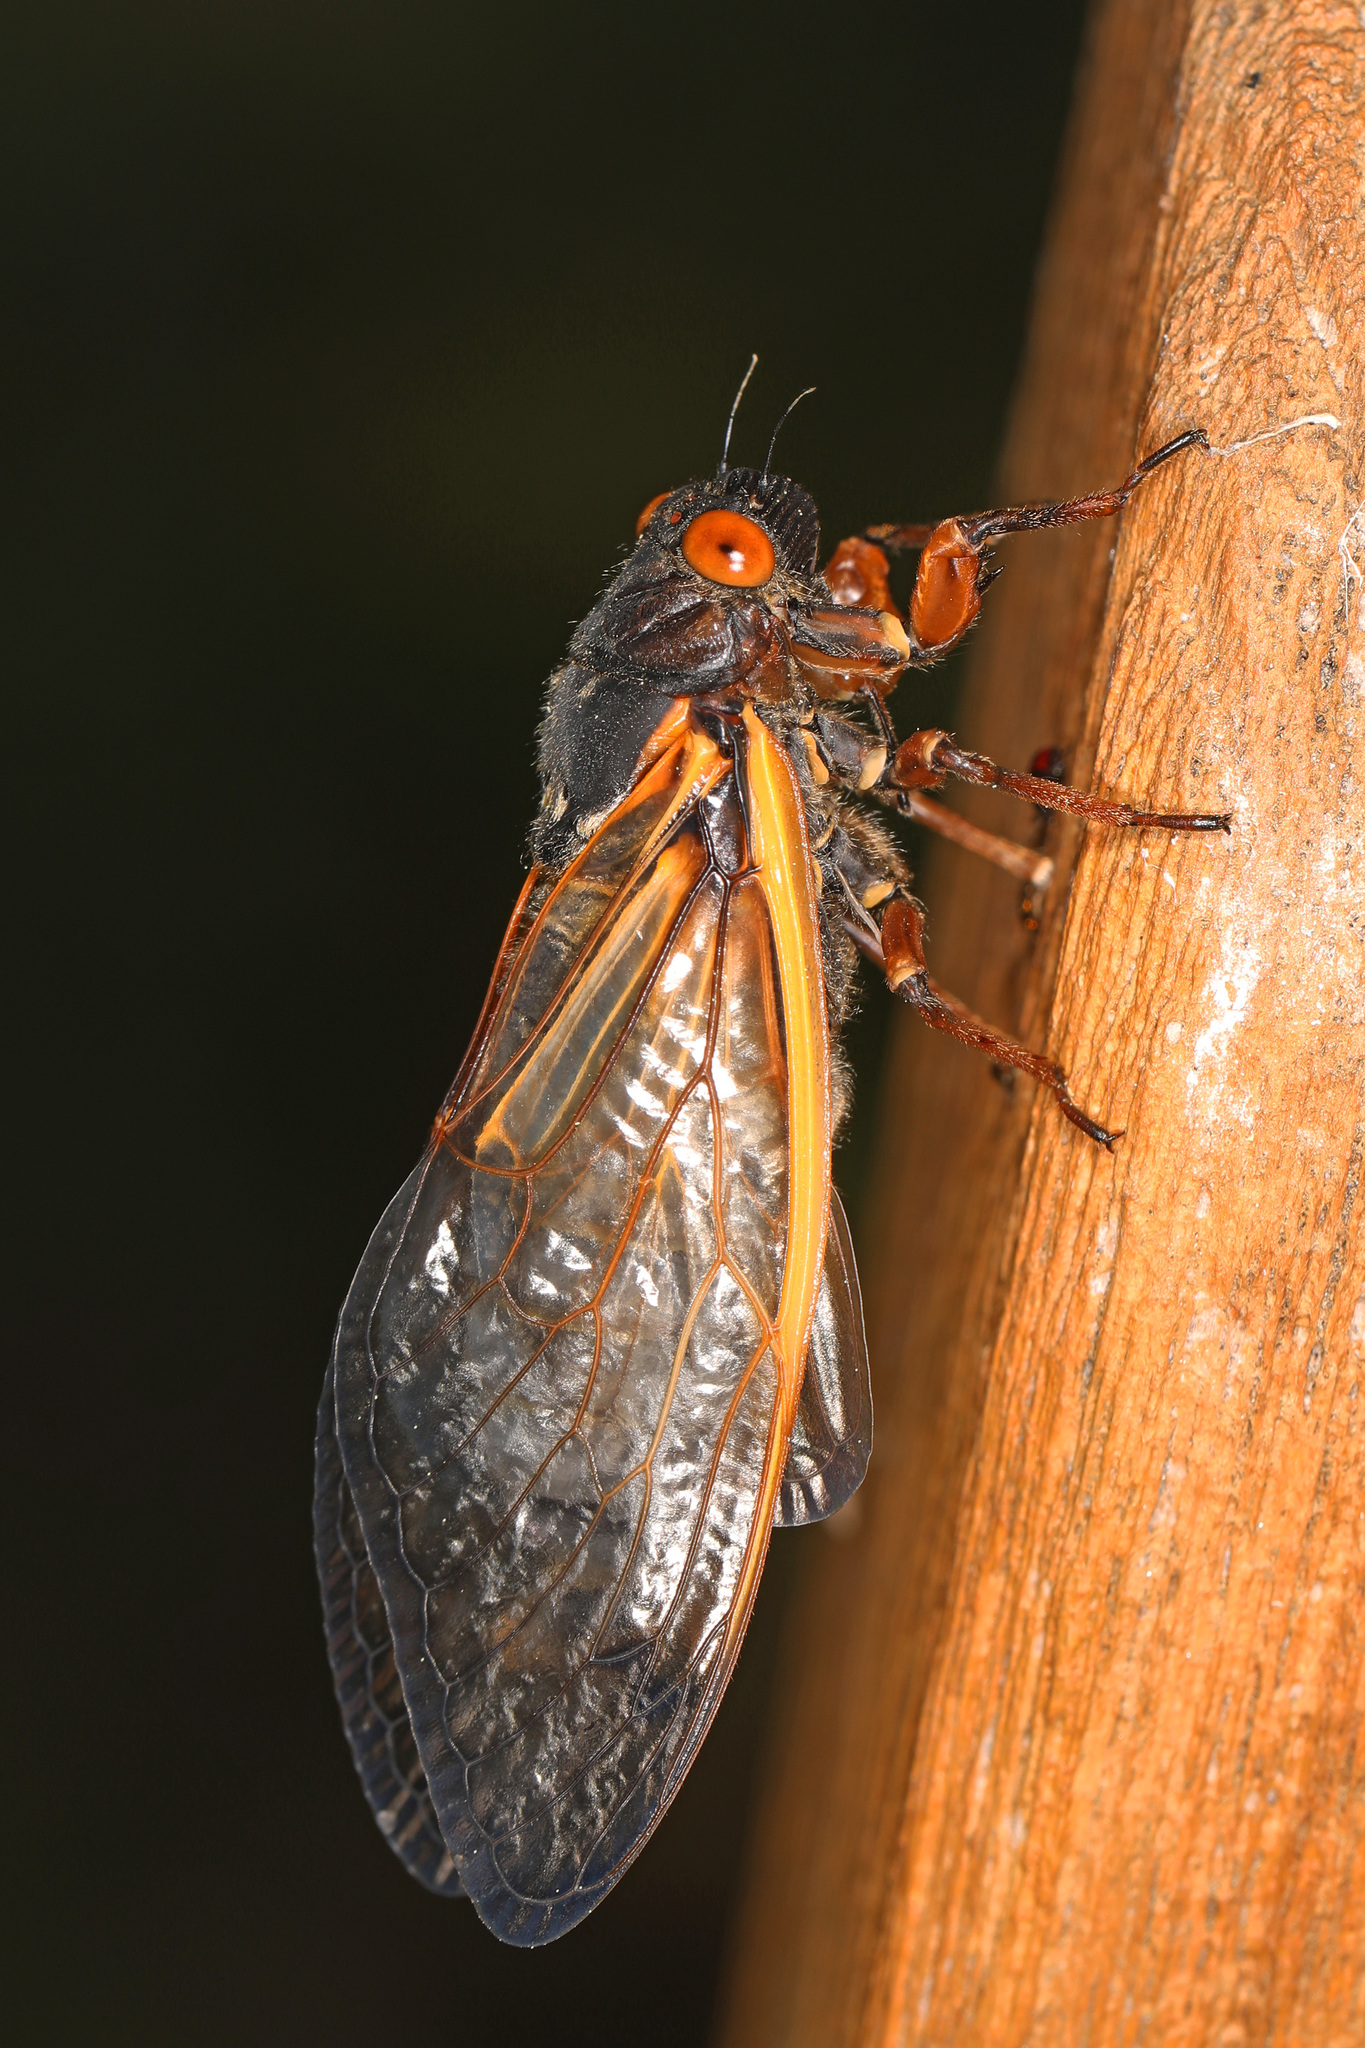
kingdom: Animalia
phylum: Arthropoda
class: Insecta
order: Hemiptera
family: Cicadidae
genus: Magicicada
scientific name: Magicicada septendecim
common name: Periodical cicada
